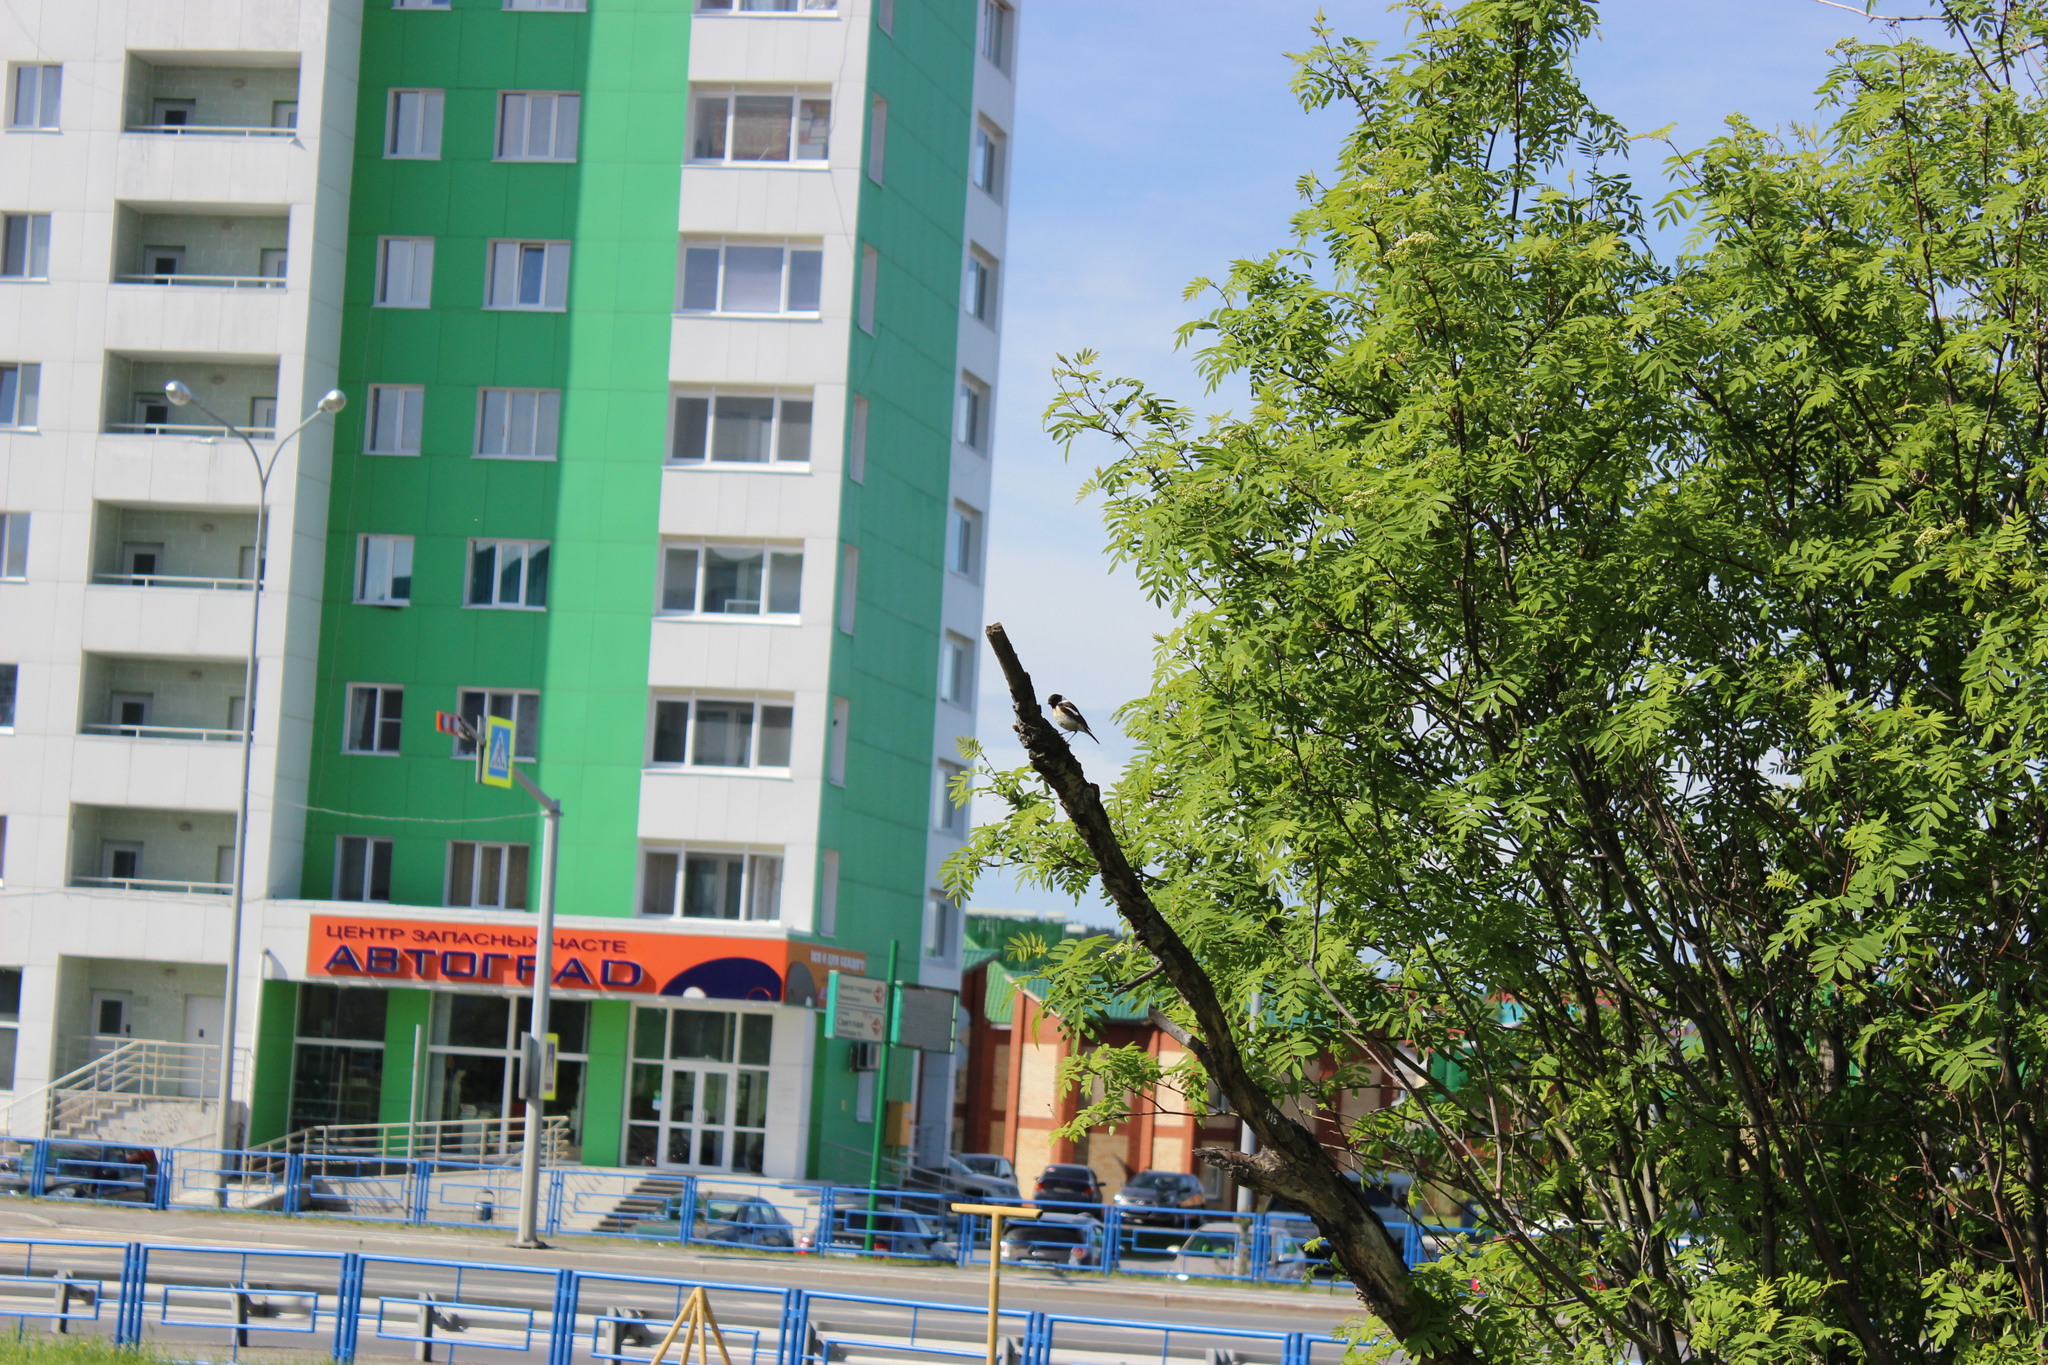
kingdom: Animalia
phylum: Chordata
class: Aves
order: Passeriformes
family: Muscicapidae
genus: Saxicola
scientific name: Saxicola maurus
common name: Siberian stonechat
